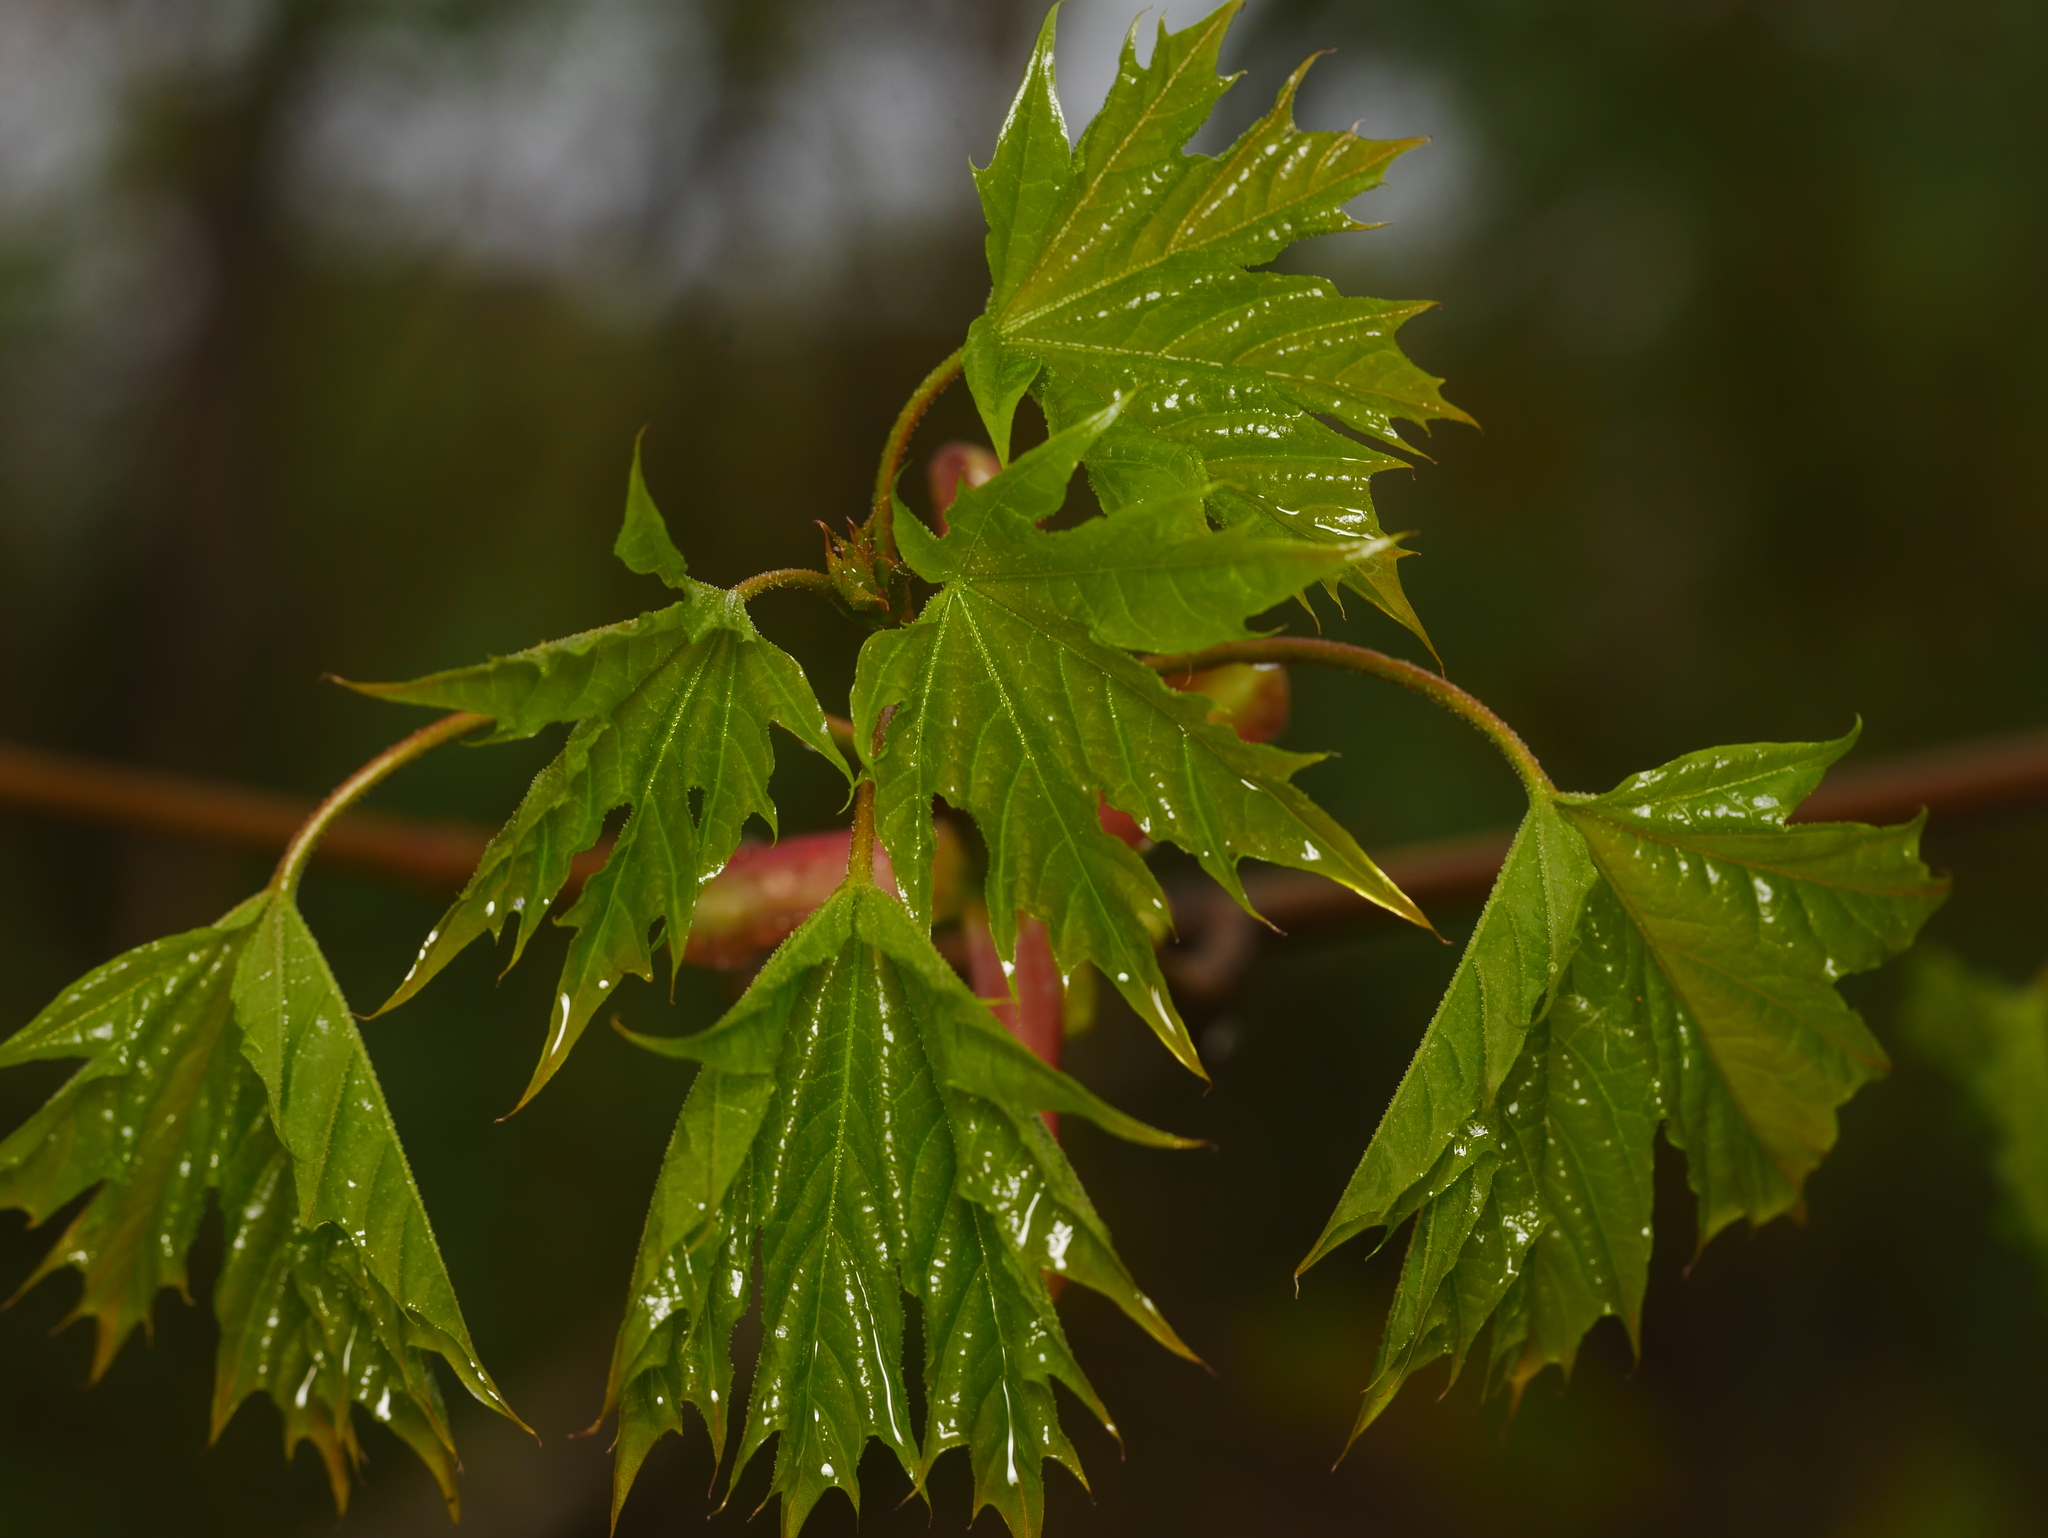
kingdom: Plantae
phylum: Tracheophyta
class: Magnoliopsida
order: Sapindales
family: Sapindaceae
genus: Acer
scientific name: Acer platanoides
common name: Norway maple
